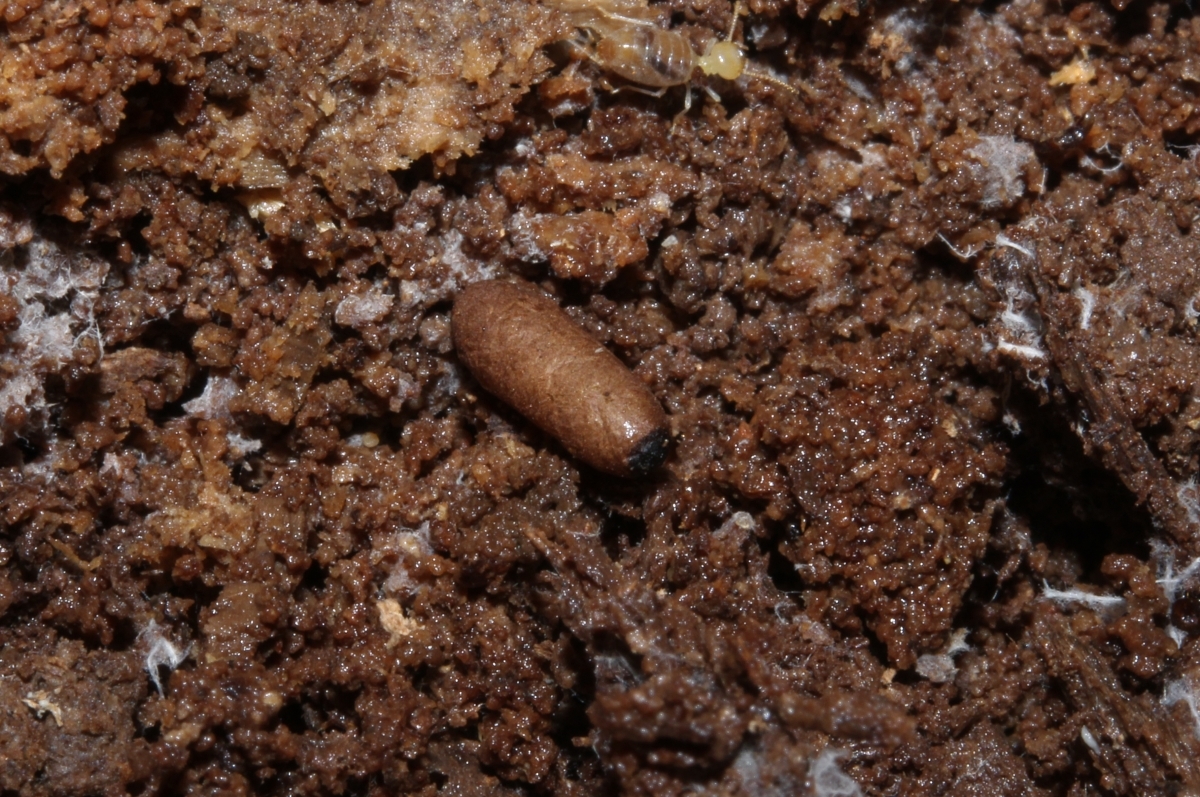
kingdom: Animalia
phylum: Arthropoda
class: Insecta
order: Hymenoptera
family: Formicidae
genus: Odontomachus
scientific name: Odontomachus bauri
